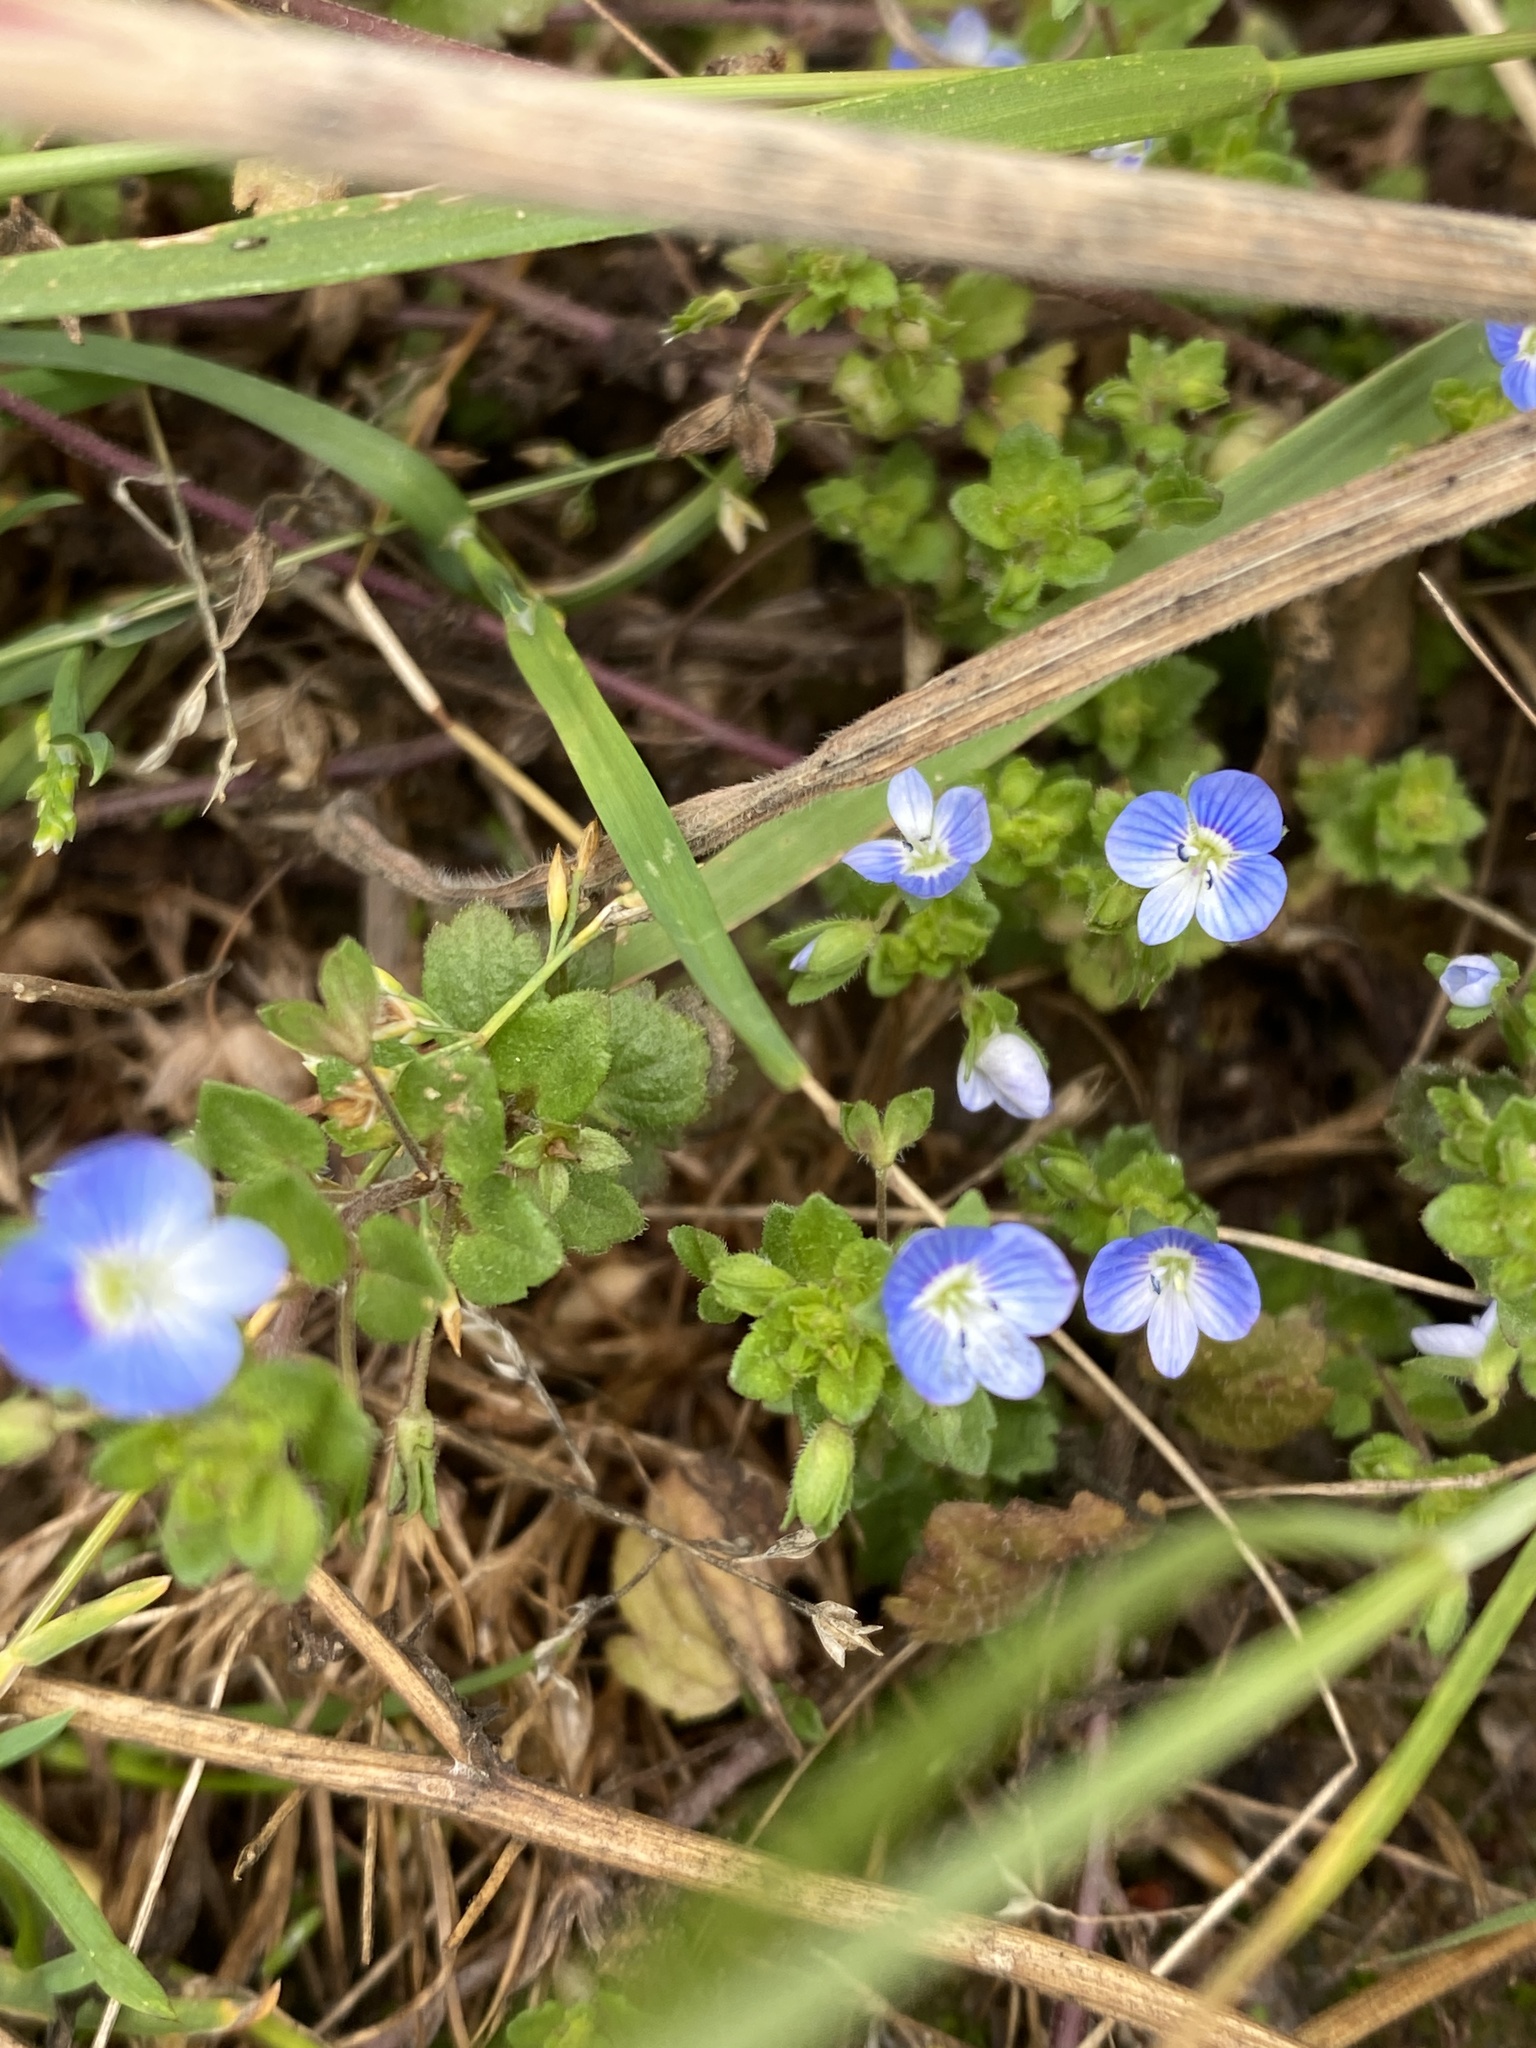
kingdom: Plantae
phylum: Tracheophyta
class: Magnoliopsida
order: Lamiales
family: Plantaginaceae
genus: Veronica
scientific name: Veronica persica
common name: Common field-speedwell
